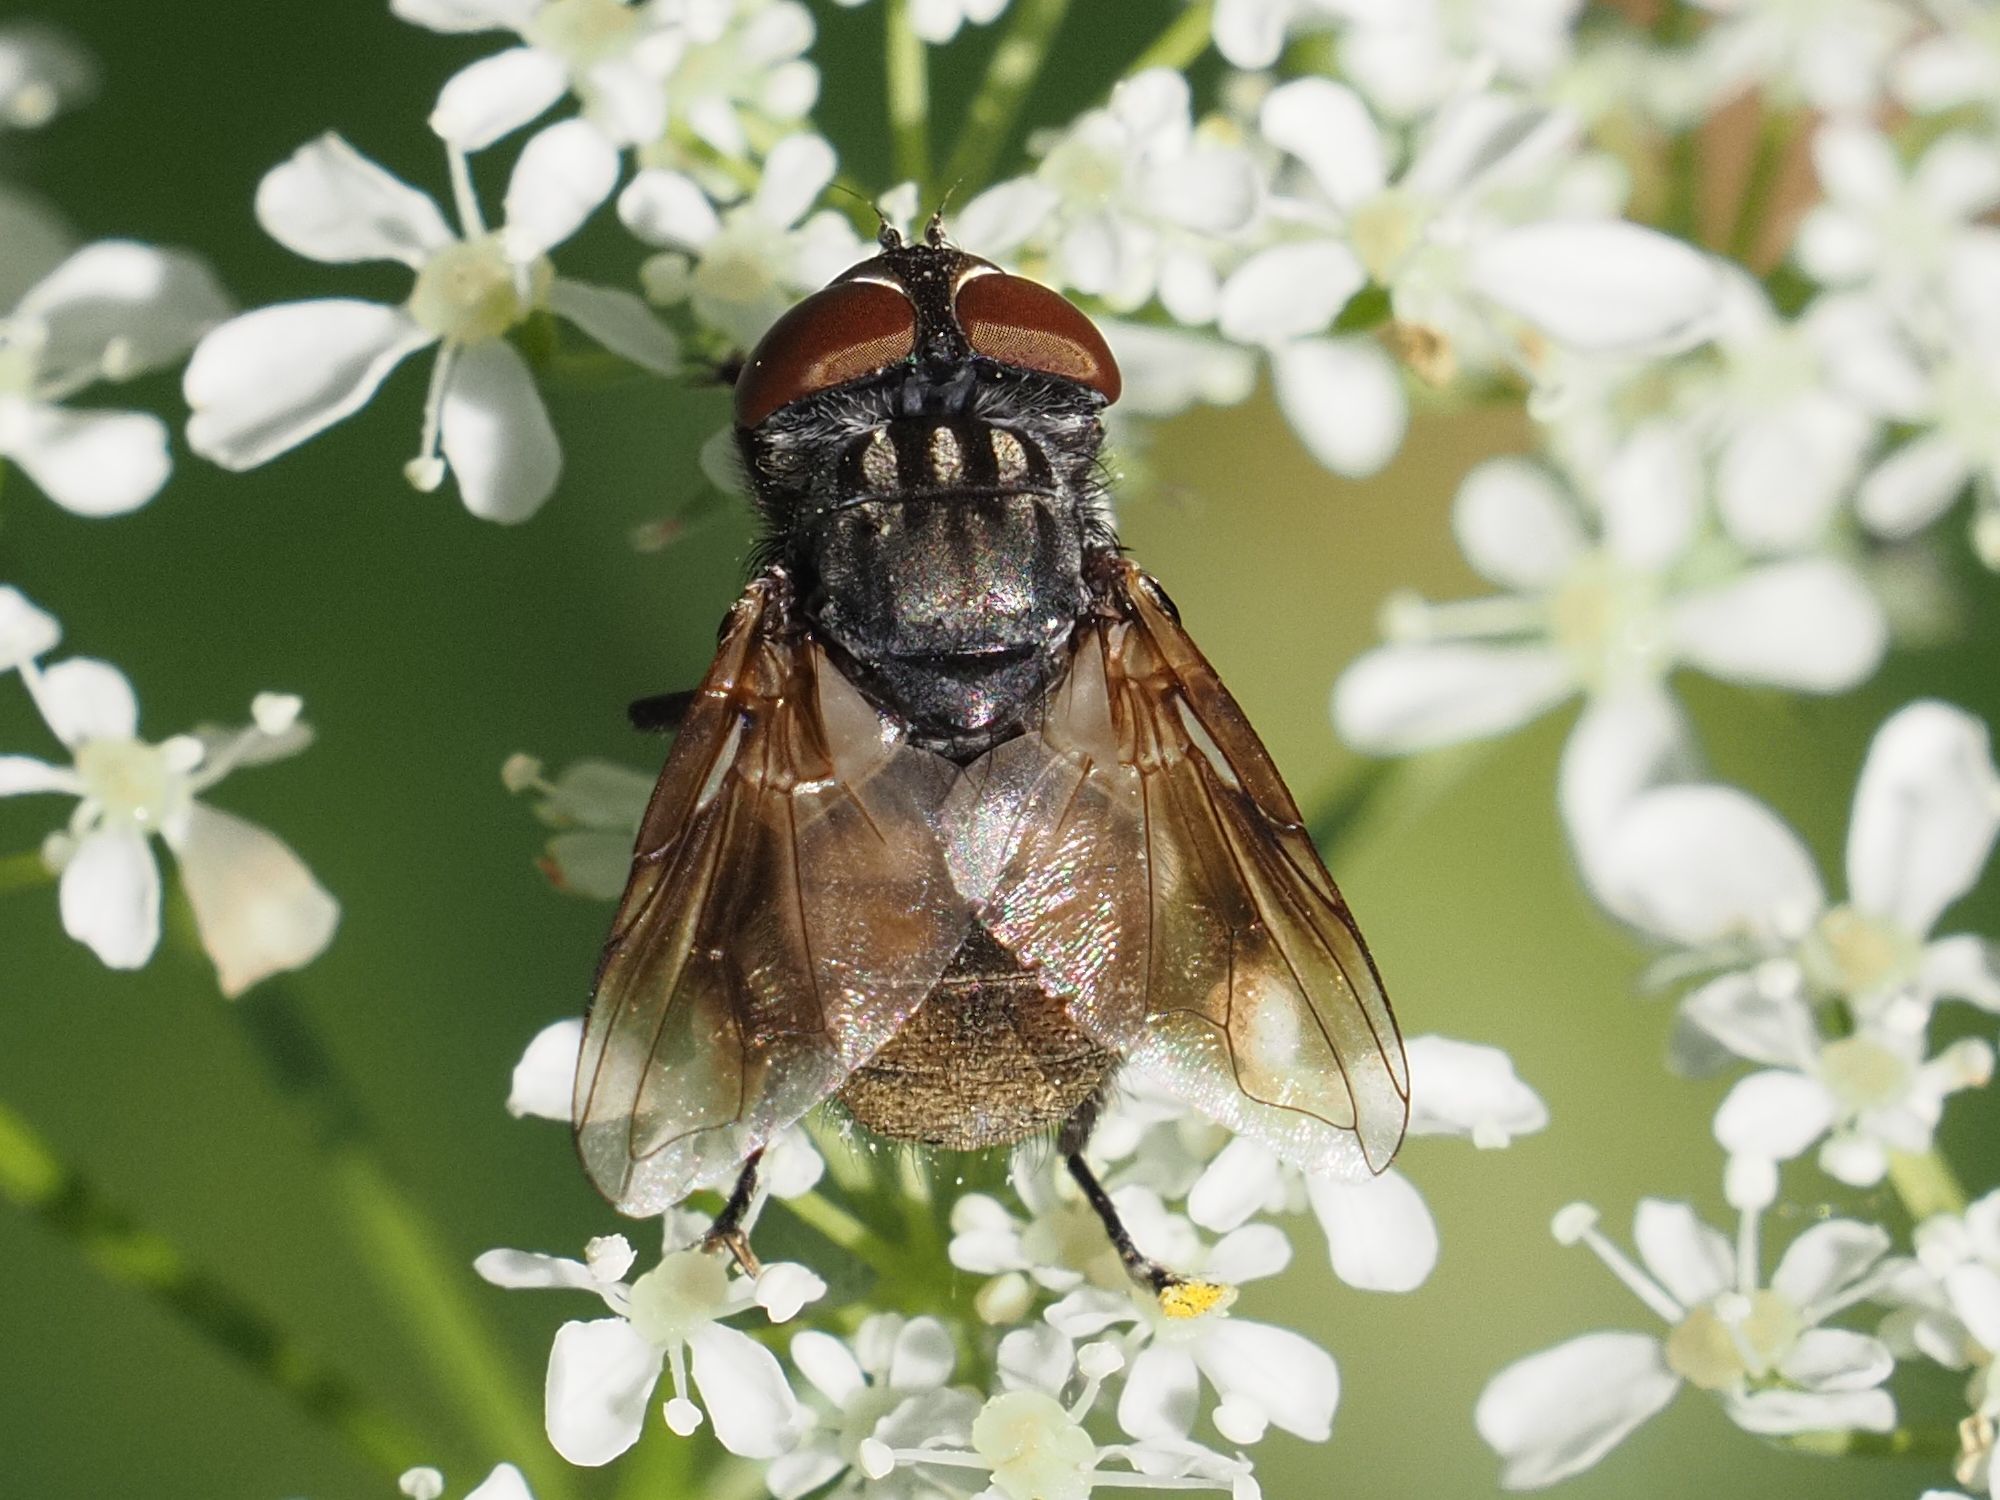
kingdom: Animalia
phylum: Arthropoda
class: Insecta
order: Diptera
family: Tachinidae
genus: Phasia
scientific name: Phasia subcoleoptrata
